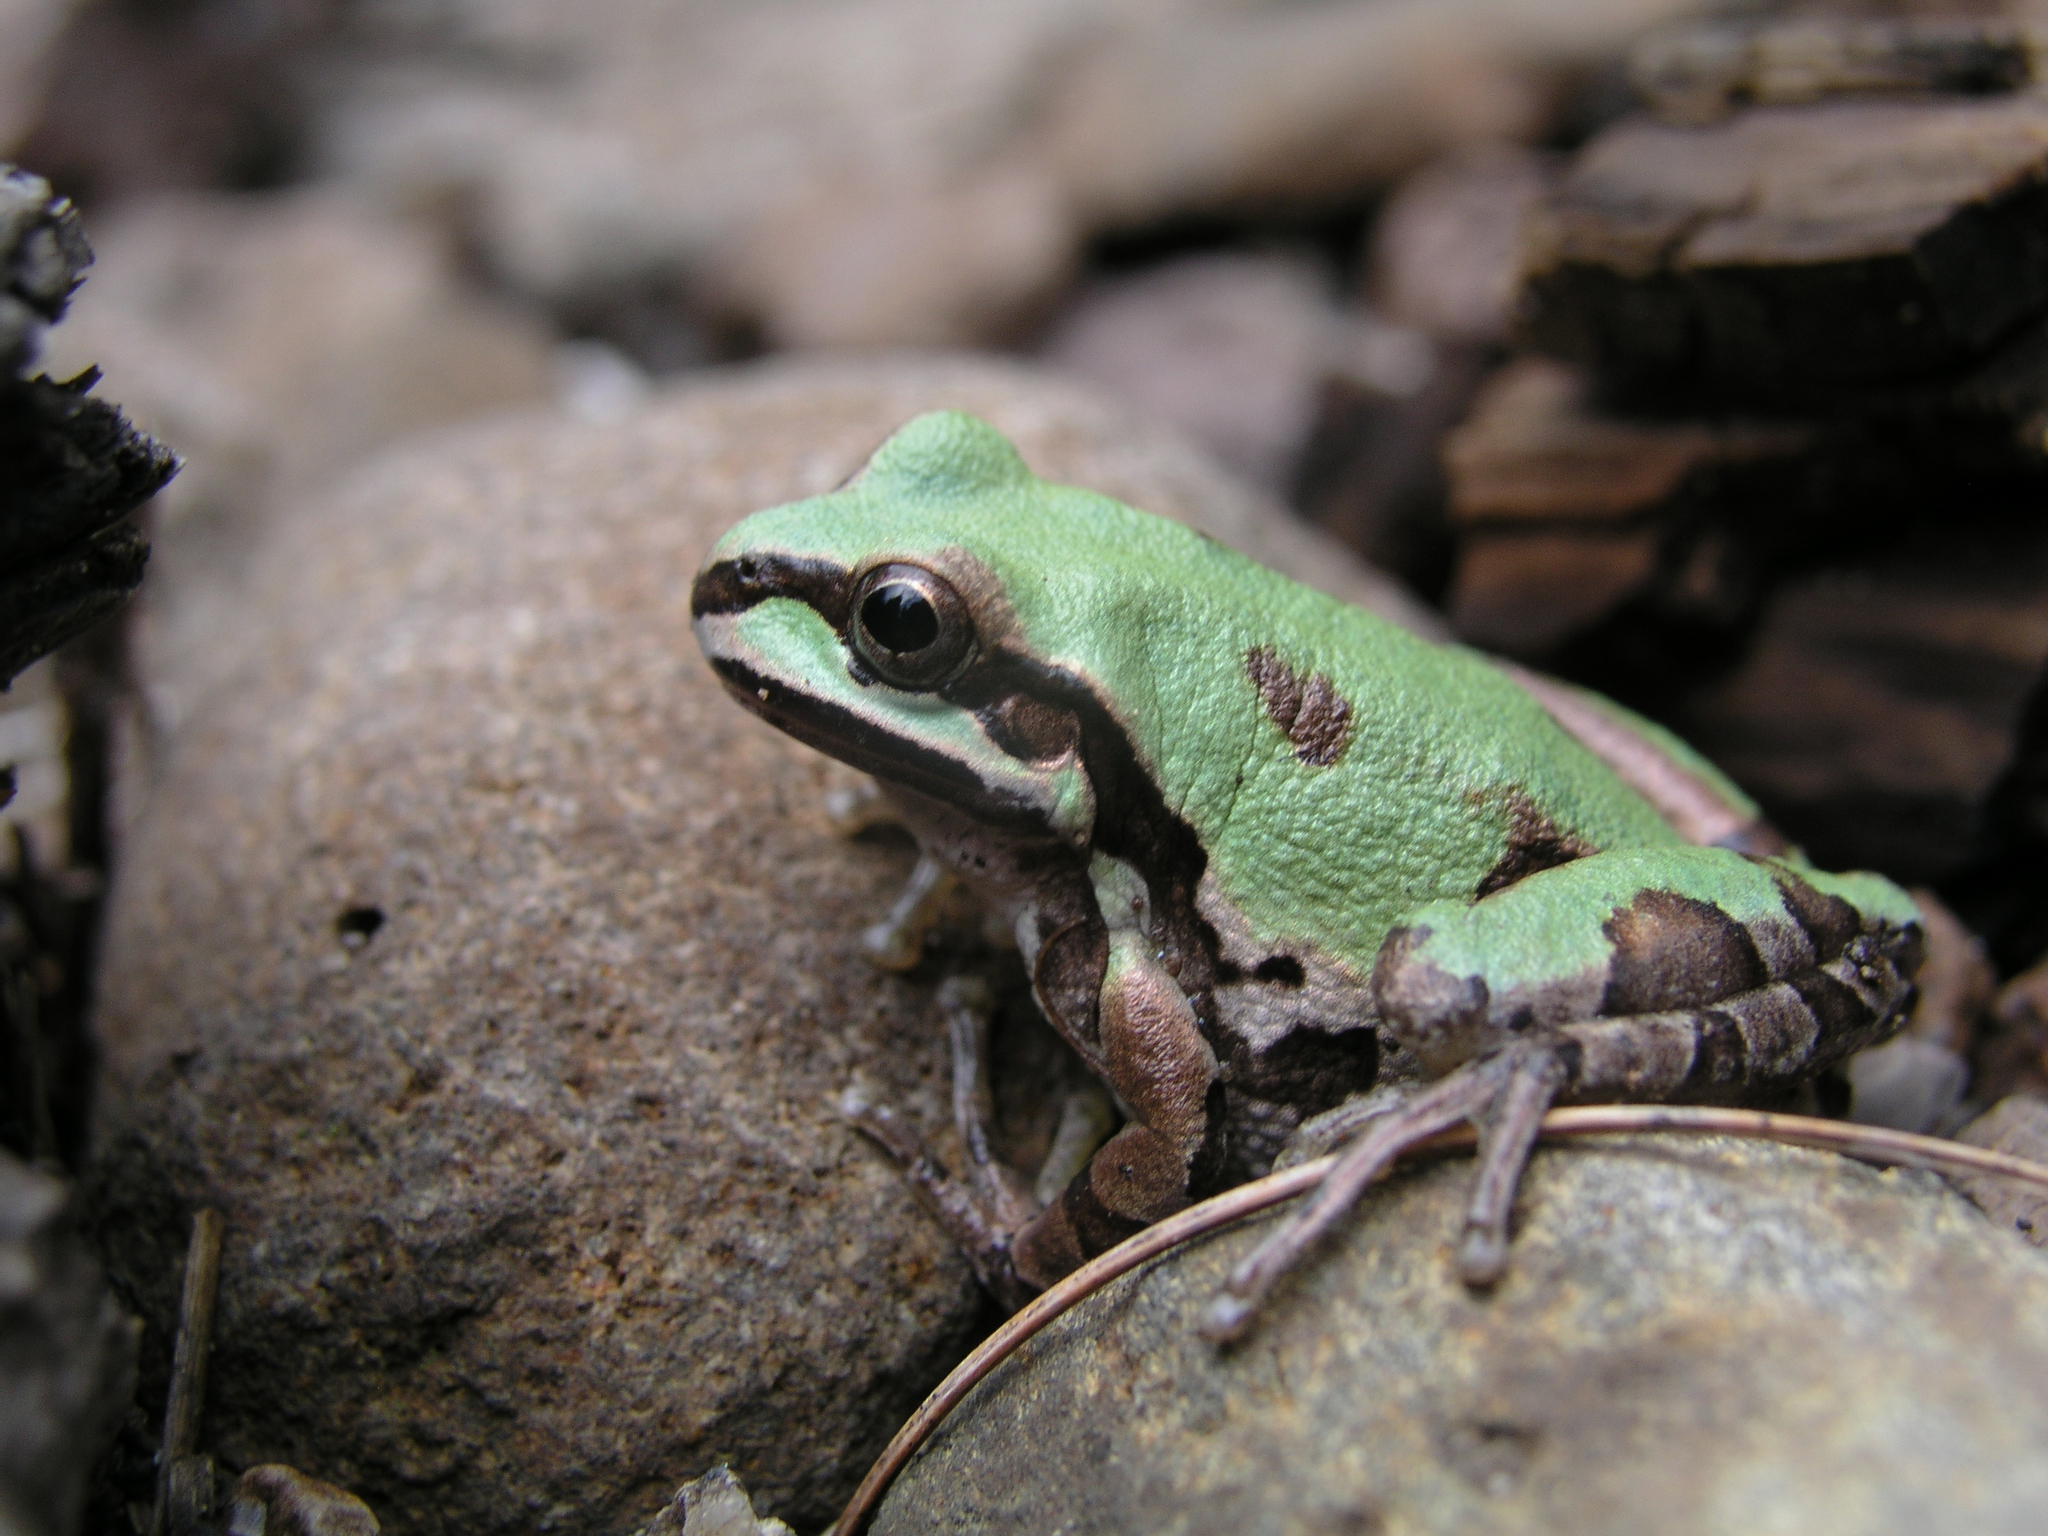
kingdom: Animalia
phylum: Chordata
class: Amphibia
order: Anura
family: Hylidae
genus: Dryophytes
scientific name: Dryophytes wrightorum
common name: Arizona treefrog
